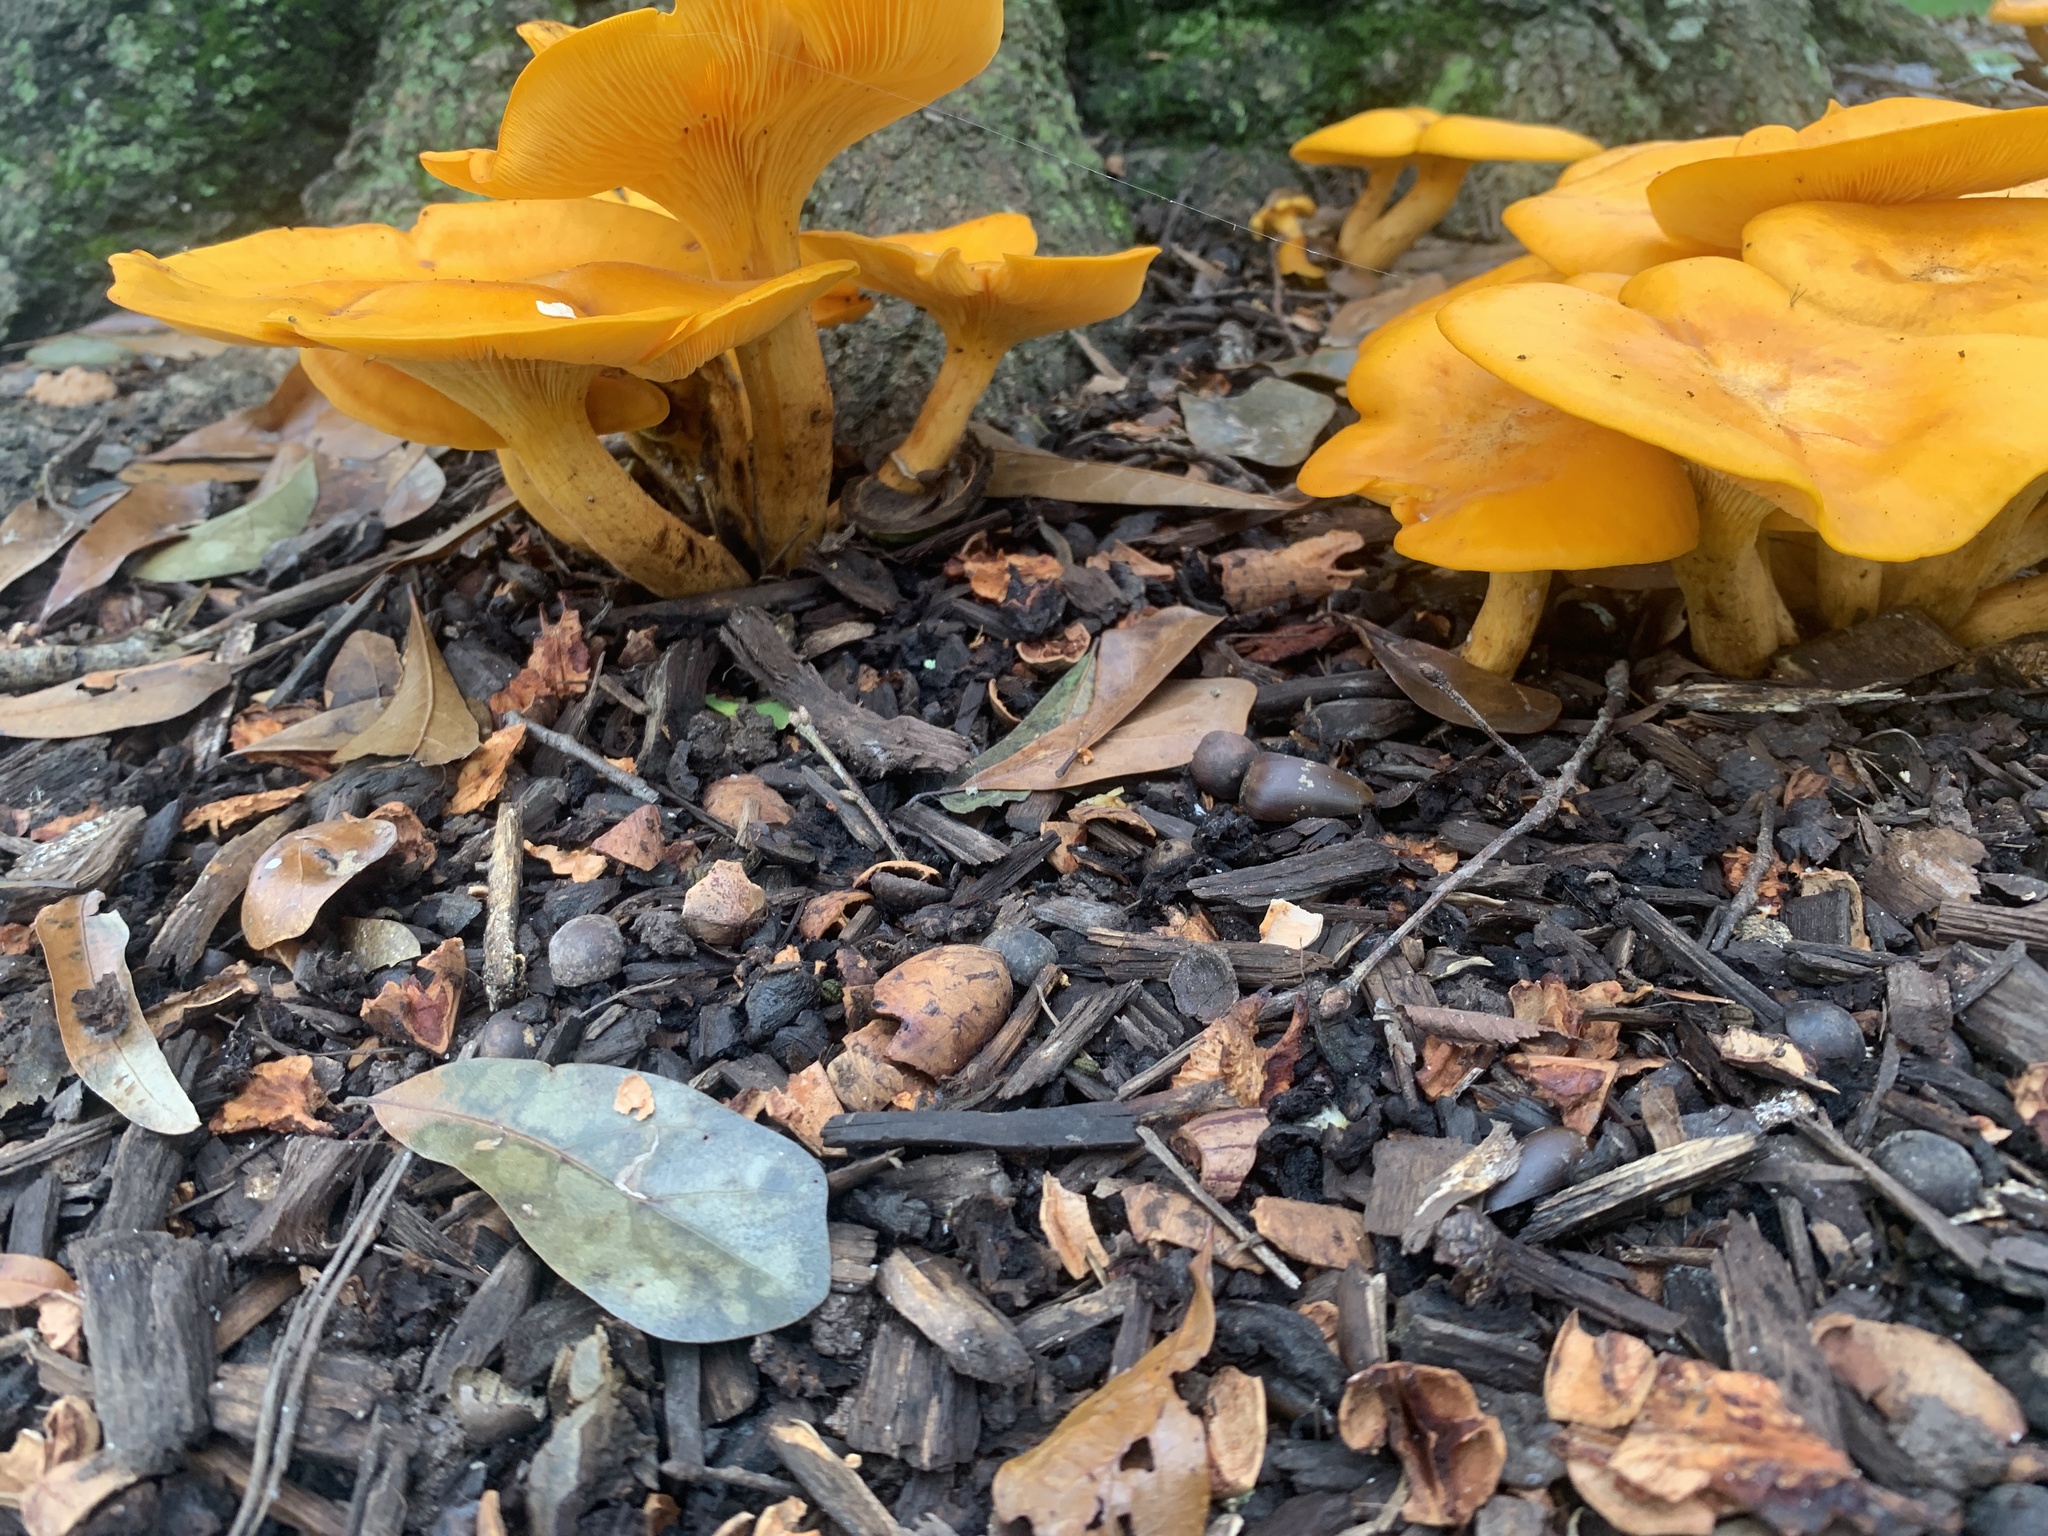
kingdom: Fungi
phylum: Basidiomycota
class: Agaricomycetes
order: Agaricales
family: Omphalotaceae
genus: Omphalotus
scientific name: Omphalotus illudens
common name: Jack o lantern
